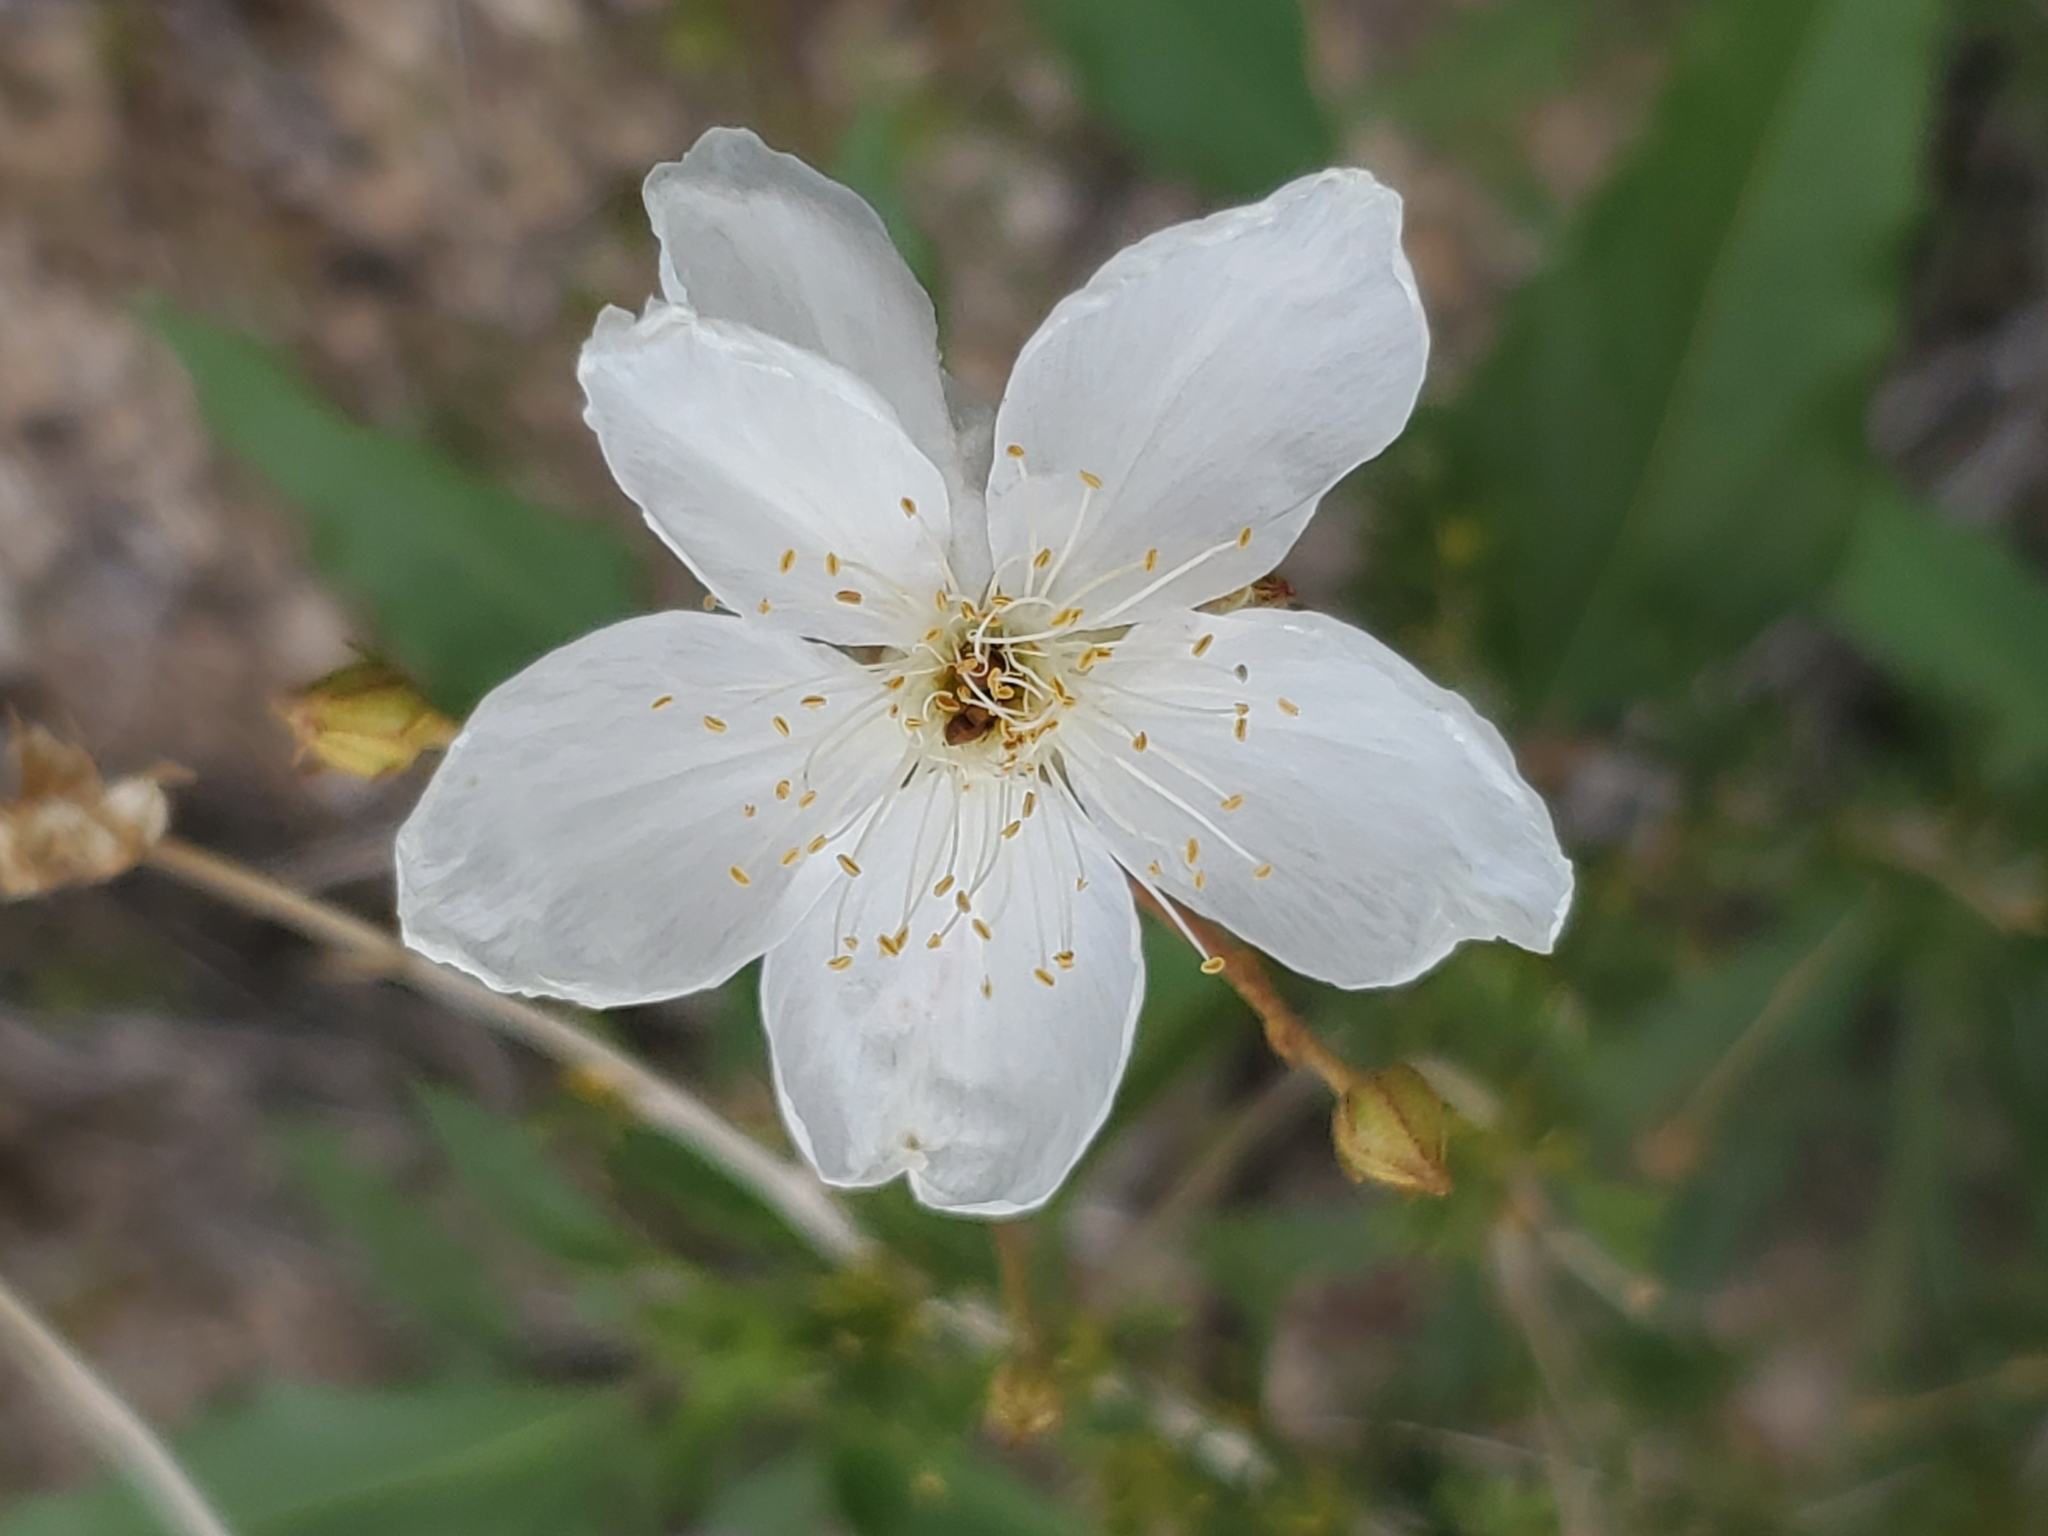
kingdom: Plantae
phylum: Tracheophyta
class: Magnoliopsida
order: Rosales
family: Rosaceae
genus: Fallugia
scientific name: Fallugia paradoxa
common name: Apache-plume
